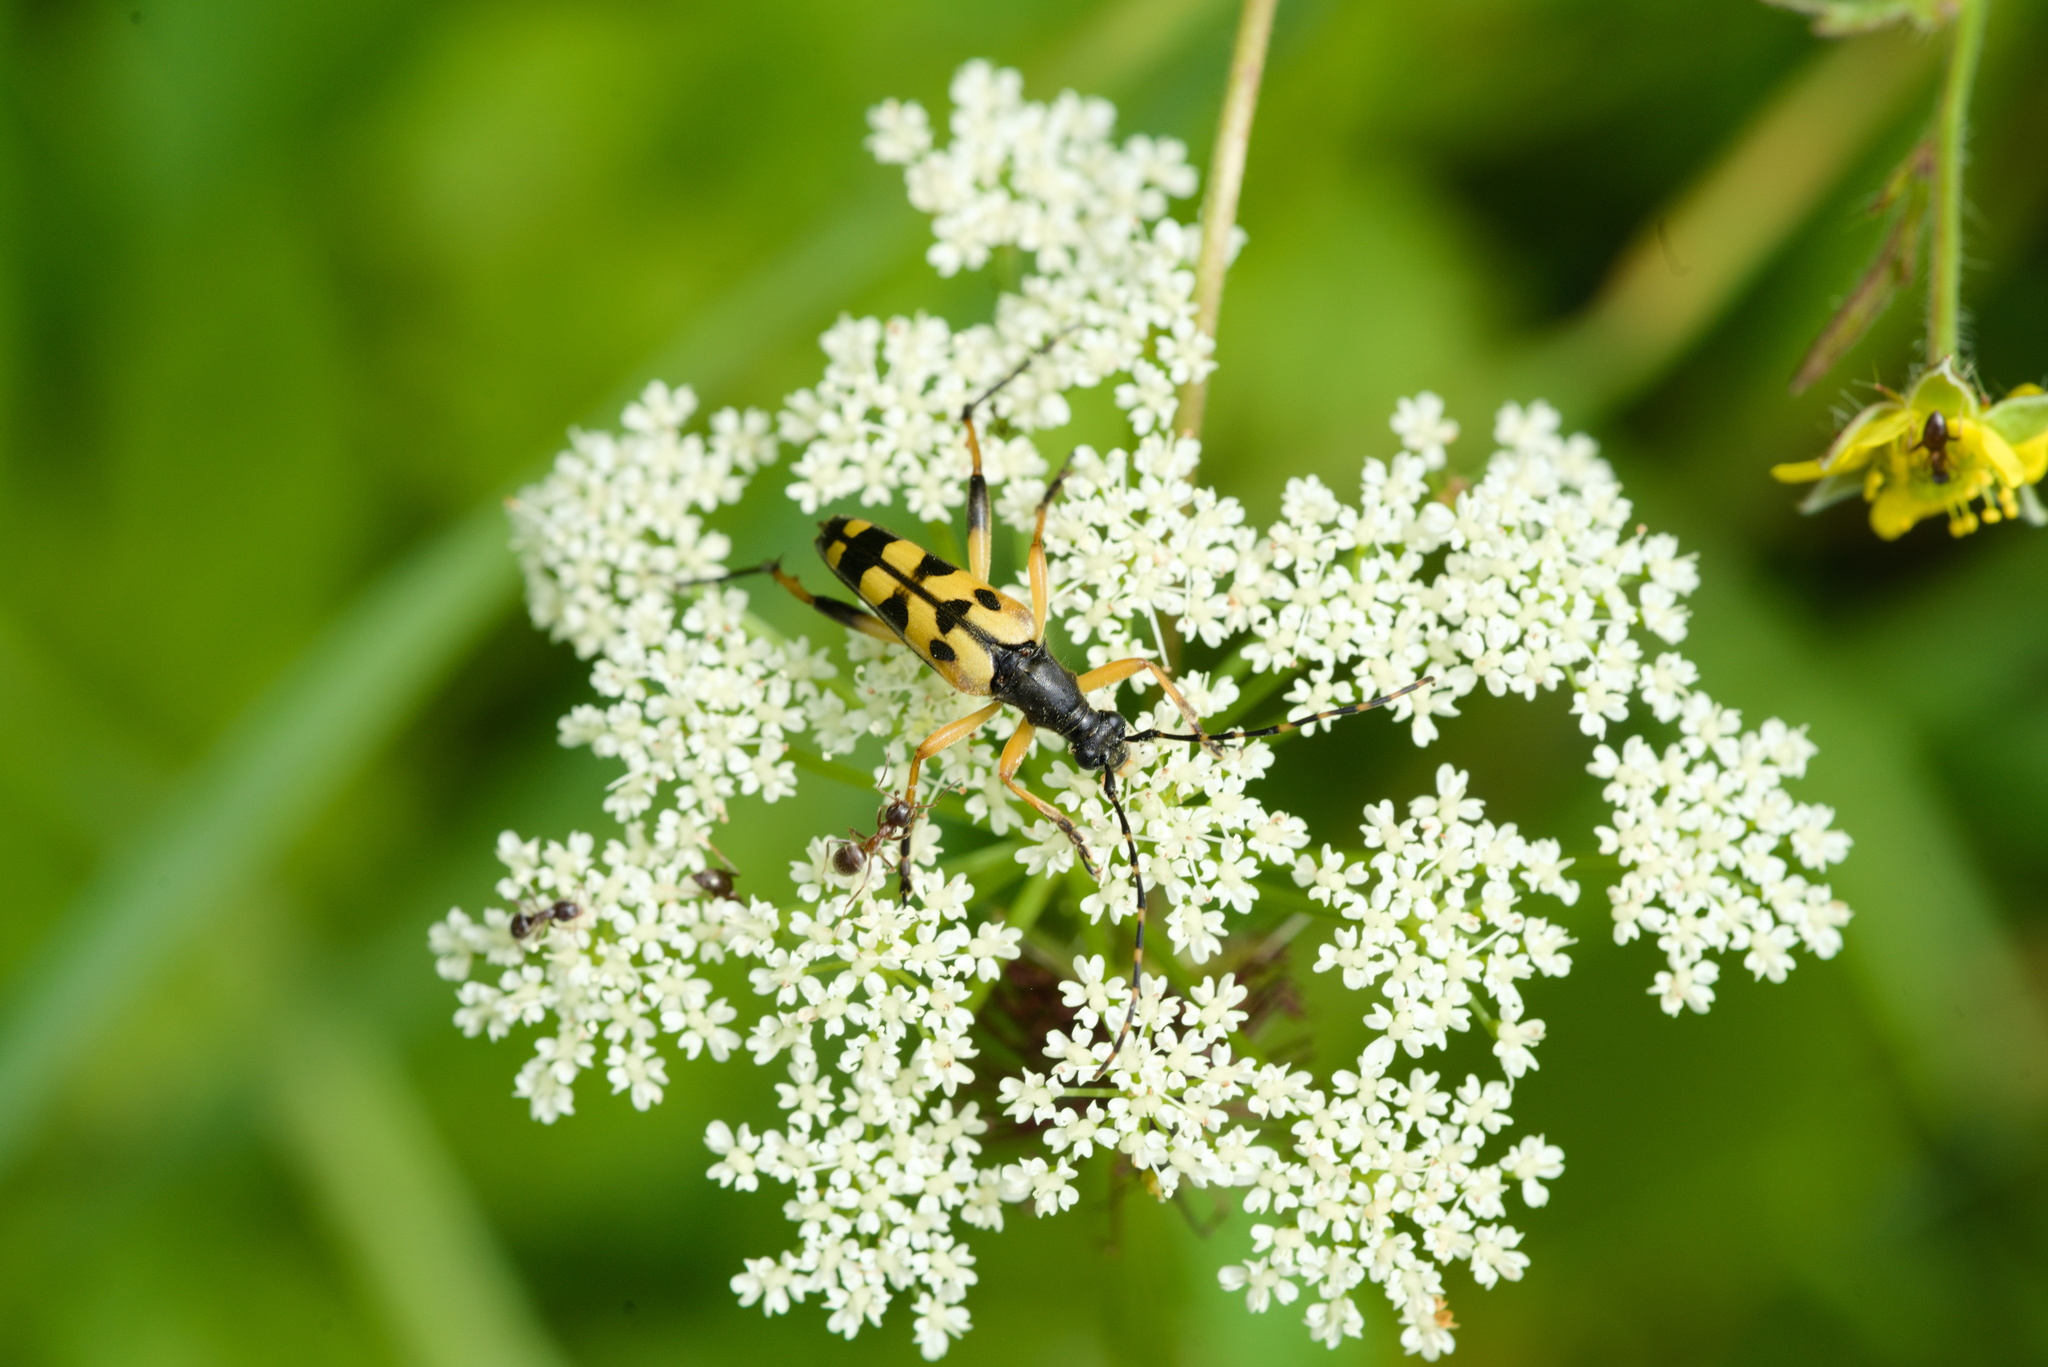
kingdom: Animalia
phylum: Arthropoda
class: Insecta
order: Coleoptera
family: Cerambycidae
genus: Rutpela
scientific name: Rutpela maculata
